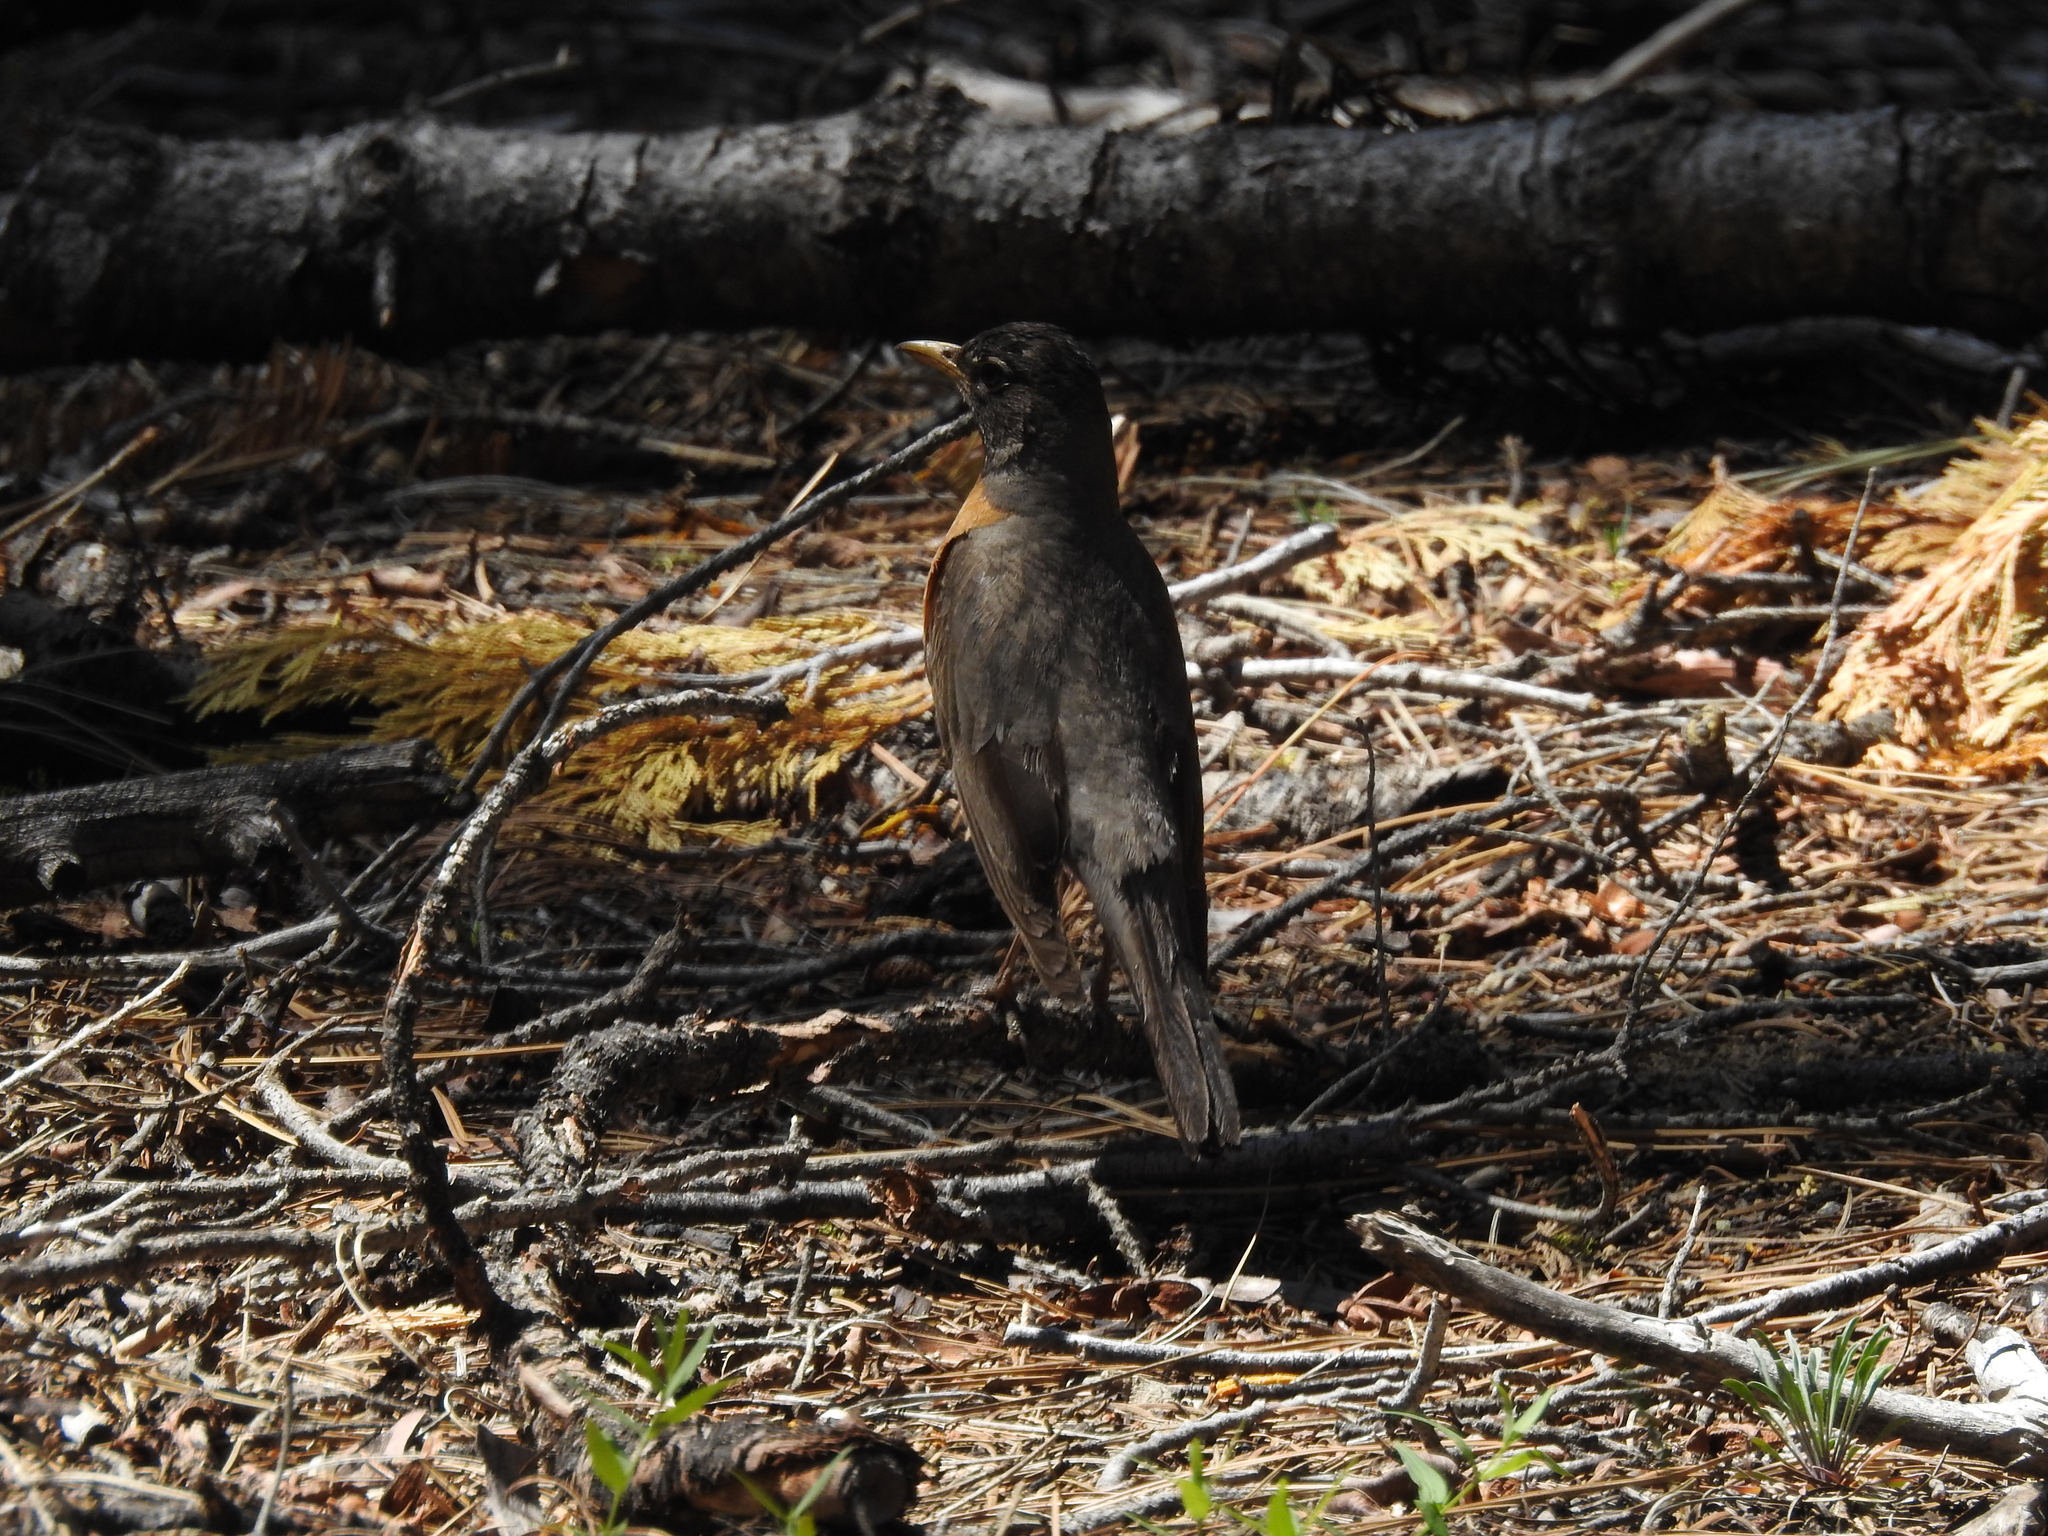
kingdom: Animalia
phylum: Chordata
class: Aves
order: Passeriformes
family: Turdidae
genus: Turdus
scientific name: Turdus migratorius
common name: American robin
